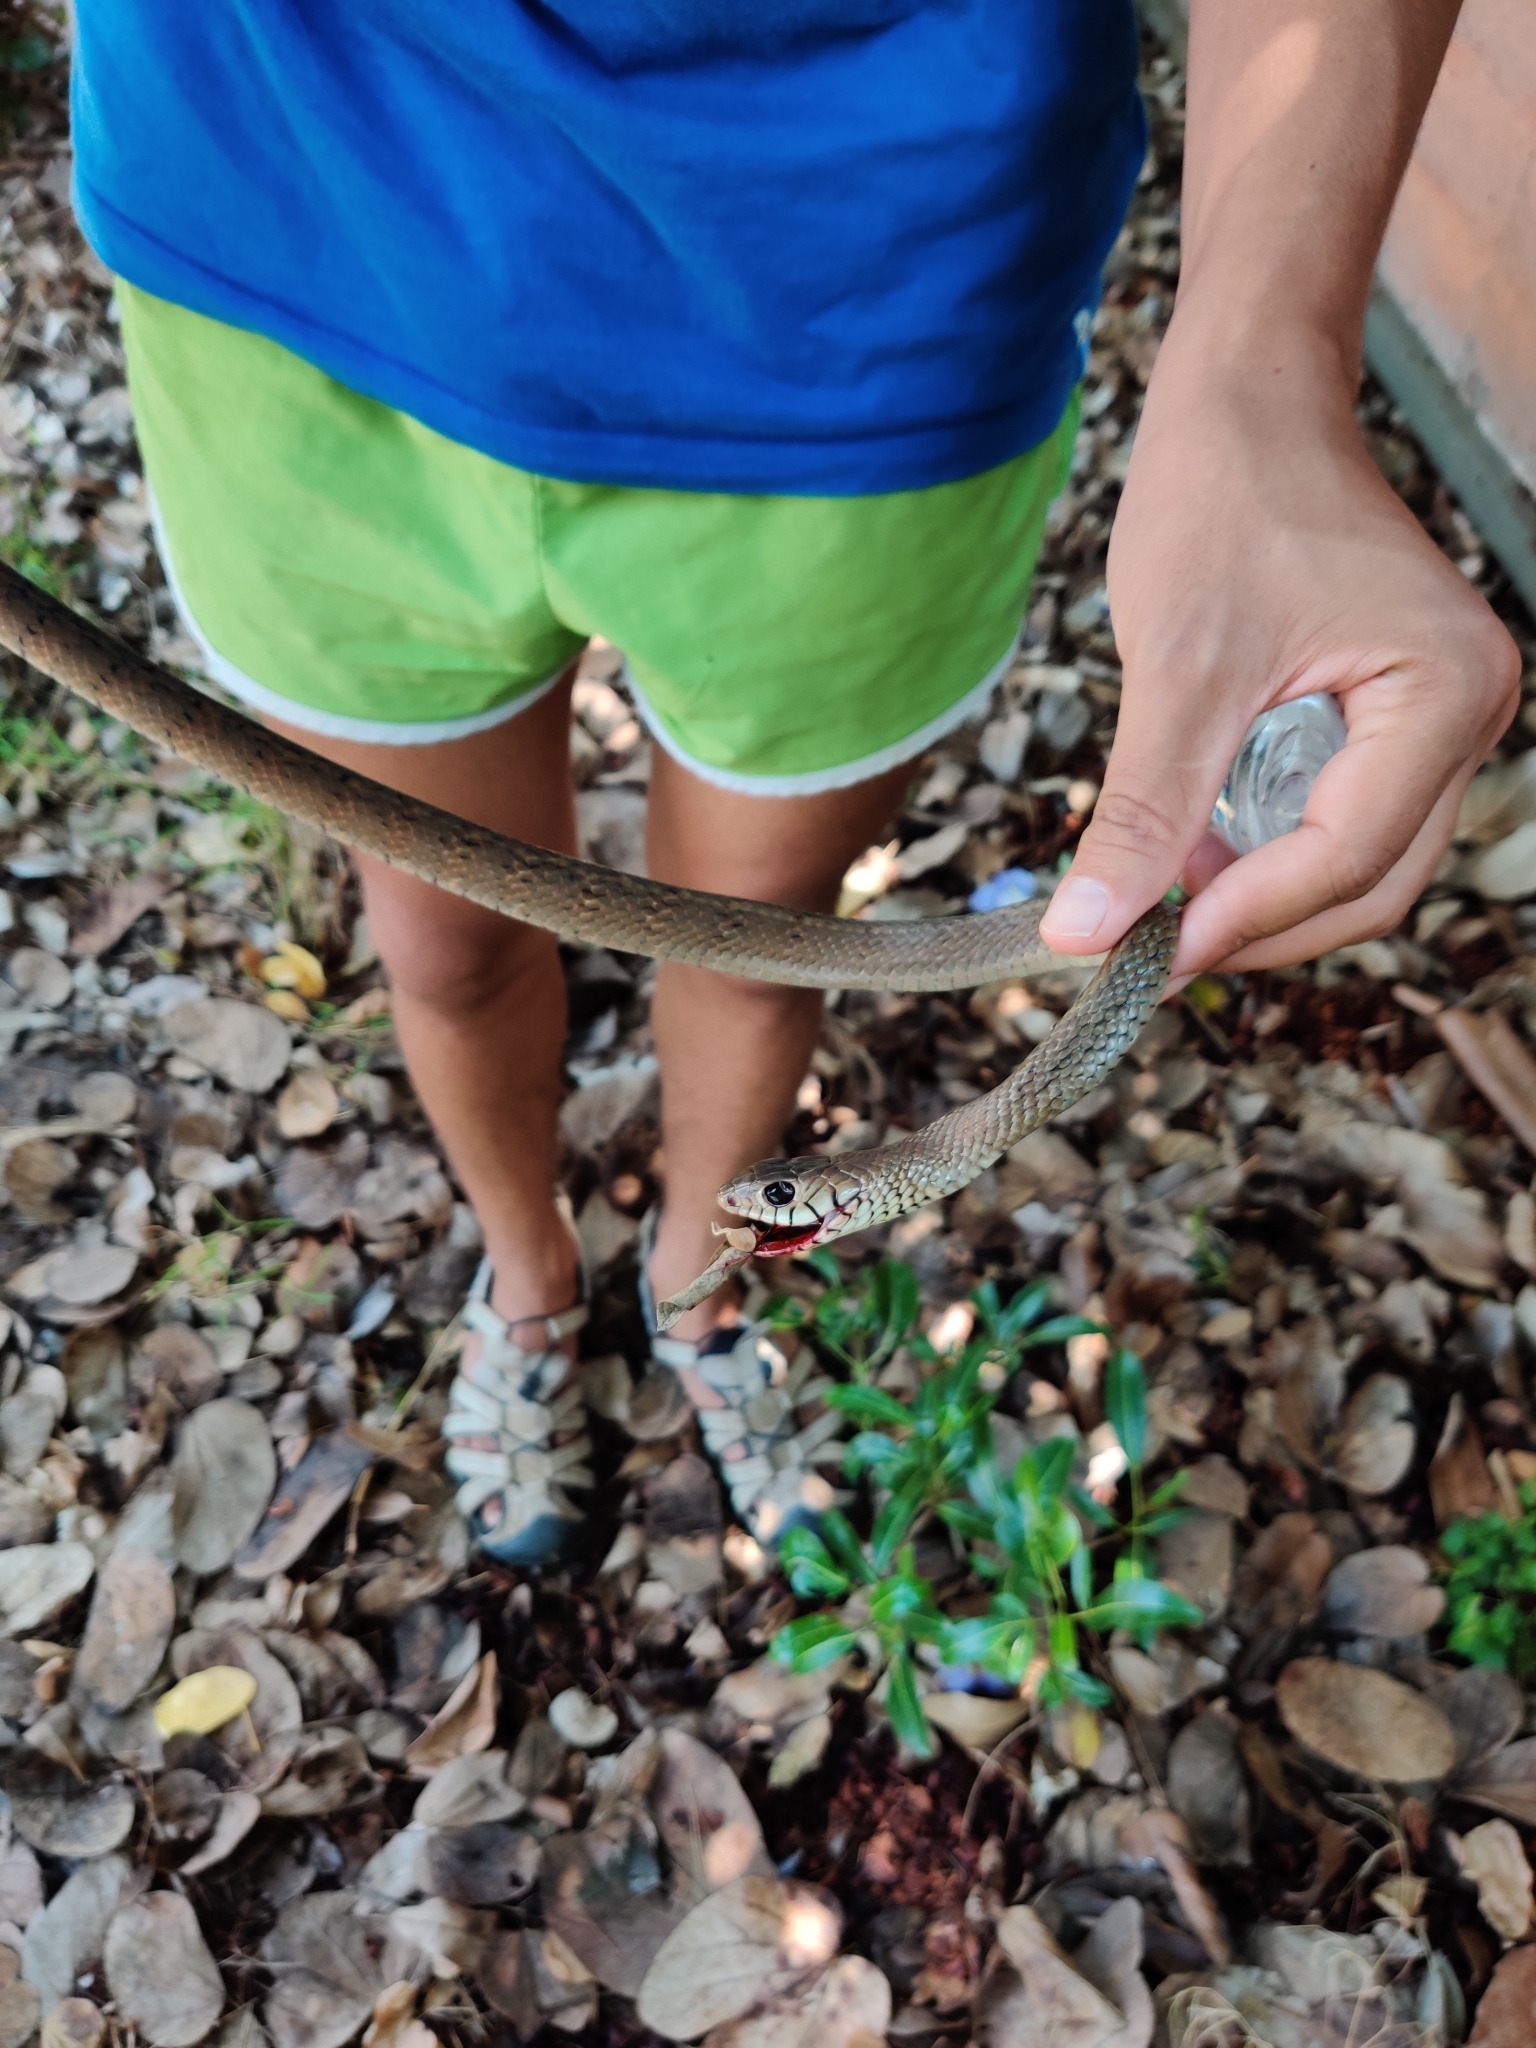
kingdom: Animalia
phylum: Chordata
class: Squamata
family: Colubridae
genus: Ptyas
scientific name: Ptyas mucosa
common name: Oriental ratsnake
